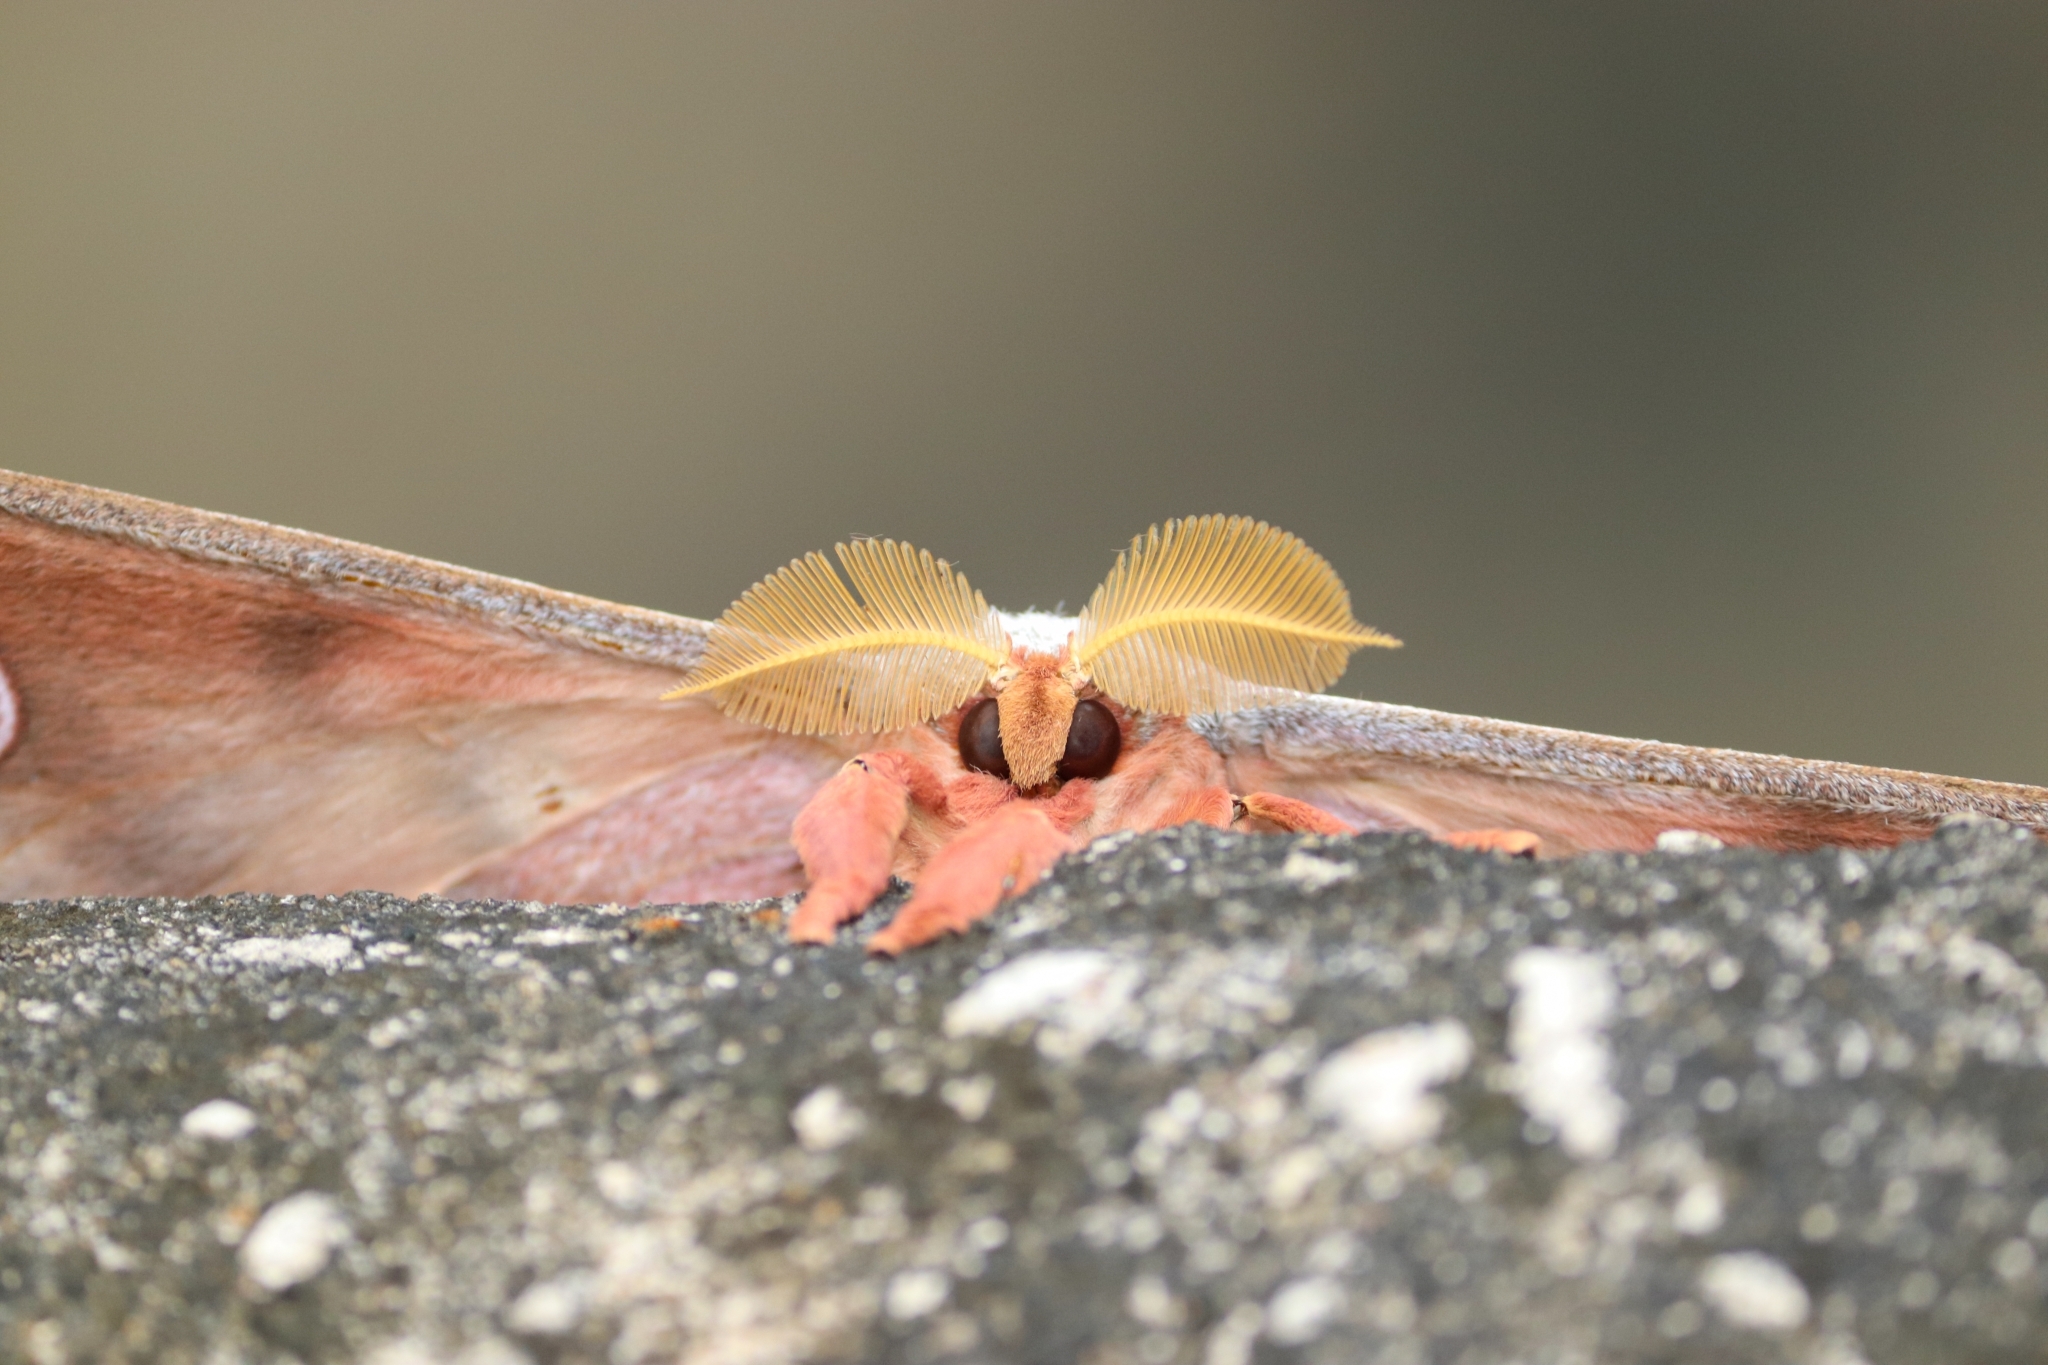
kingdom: Animalia
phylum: Arthropoda
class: Insecta
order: Lepidoptera
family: Saturniidae
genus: Antheraea
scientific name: Antheraea cingalesa
